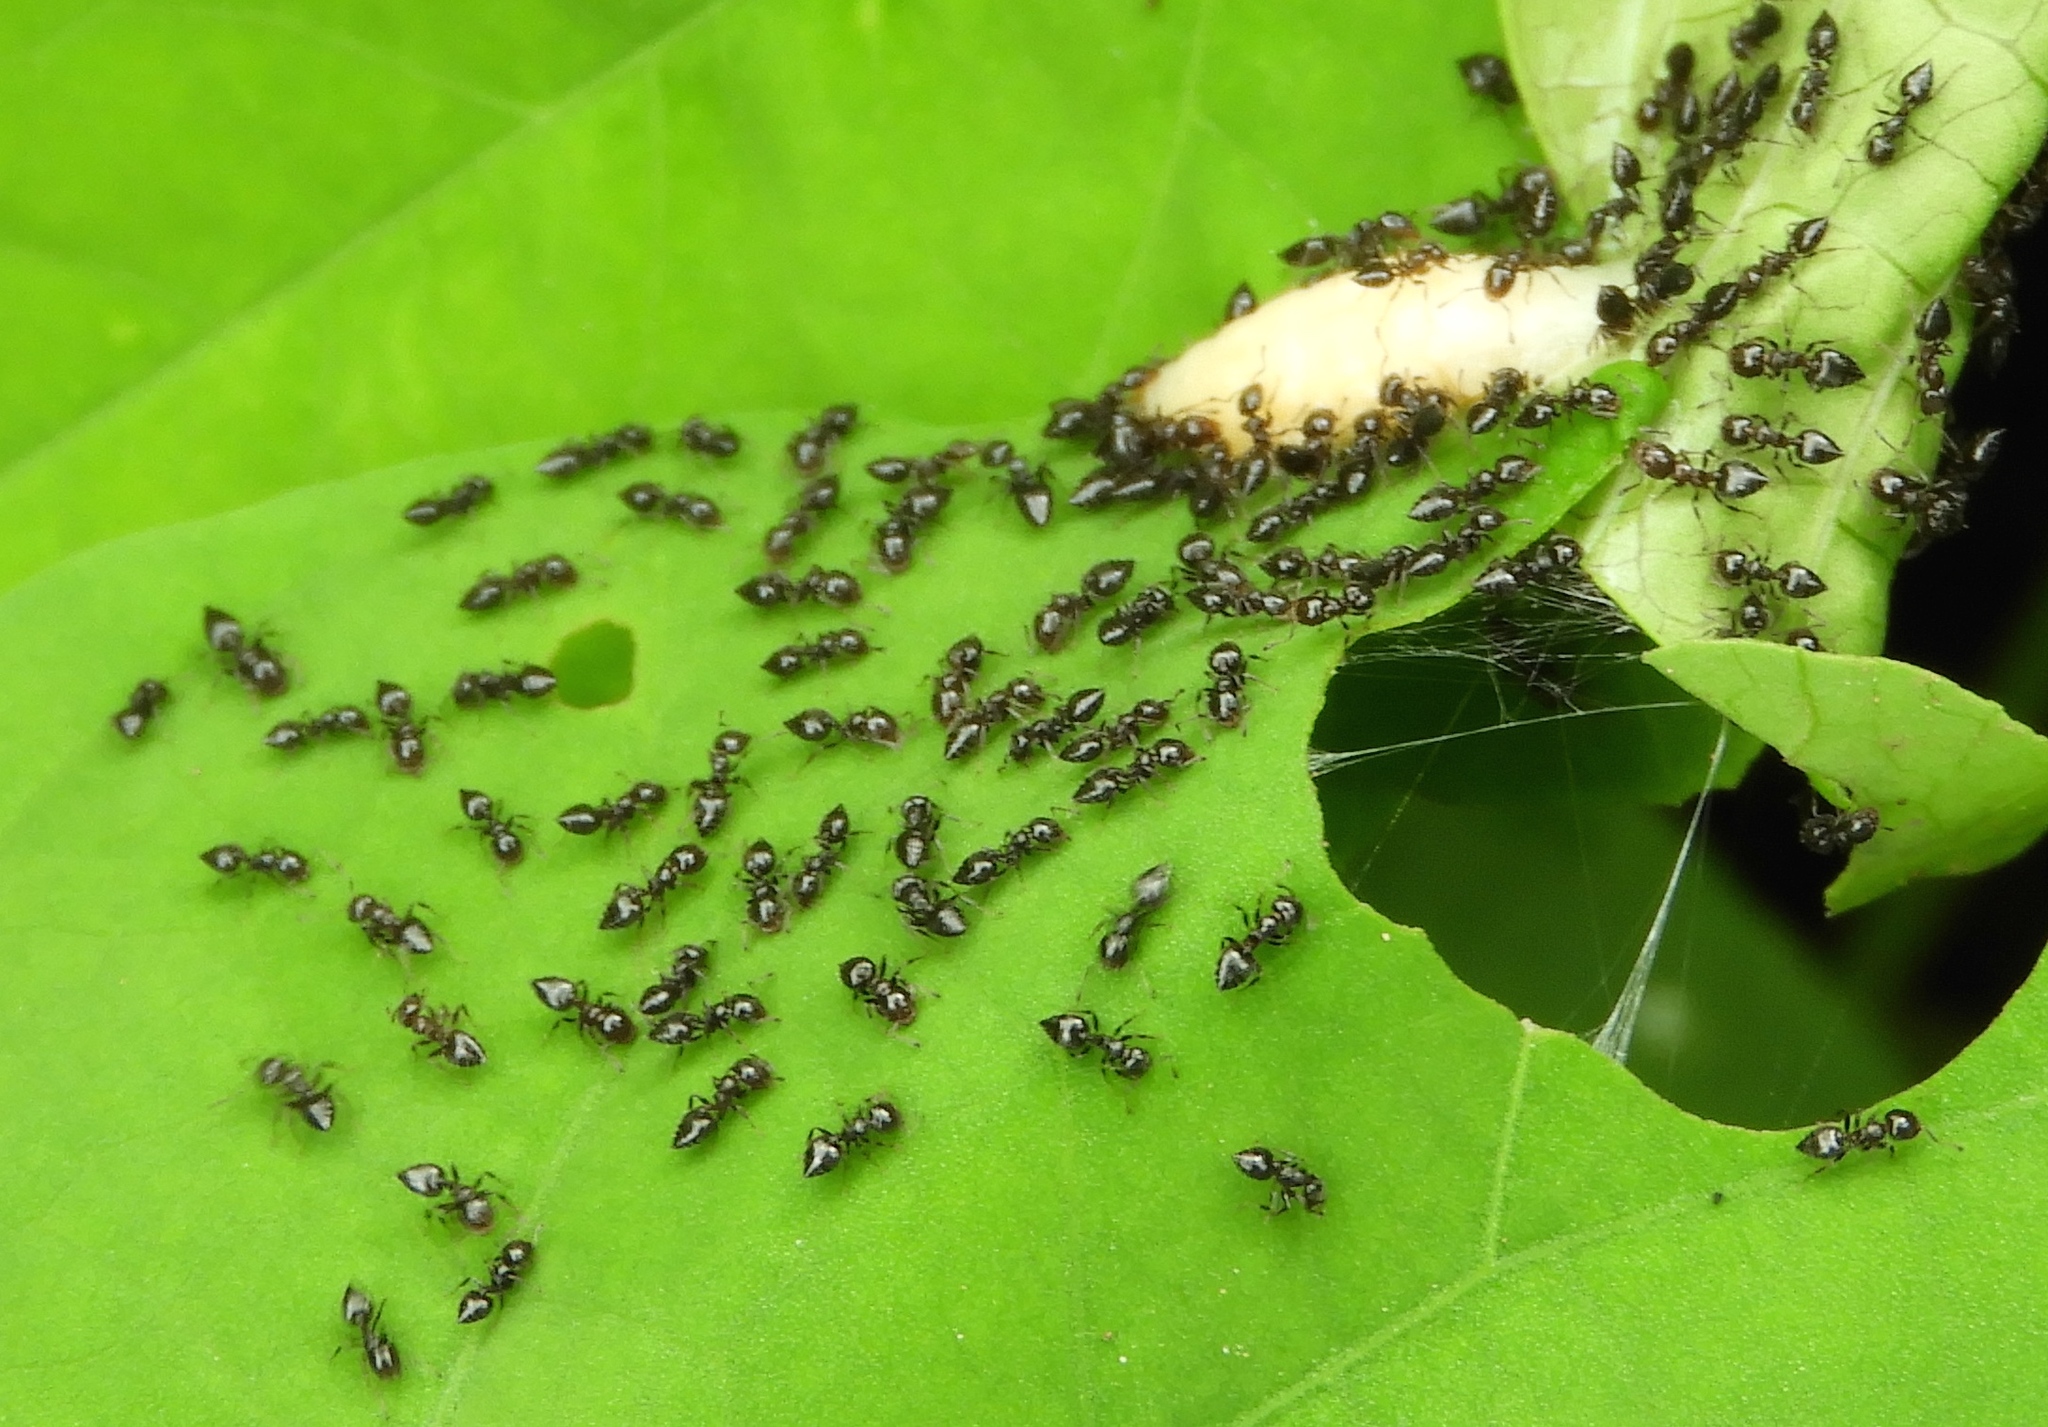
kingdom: Animalia
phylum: Arthropoda
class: Insecta
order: Hymenoptera
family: Formicidae
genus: Crematogaster
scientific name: Crematogaster
